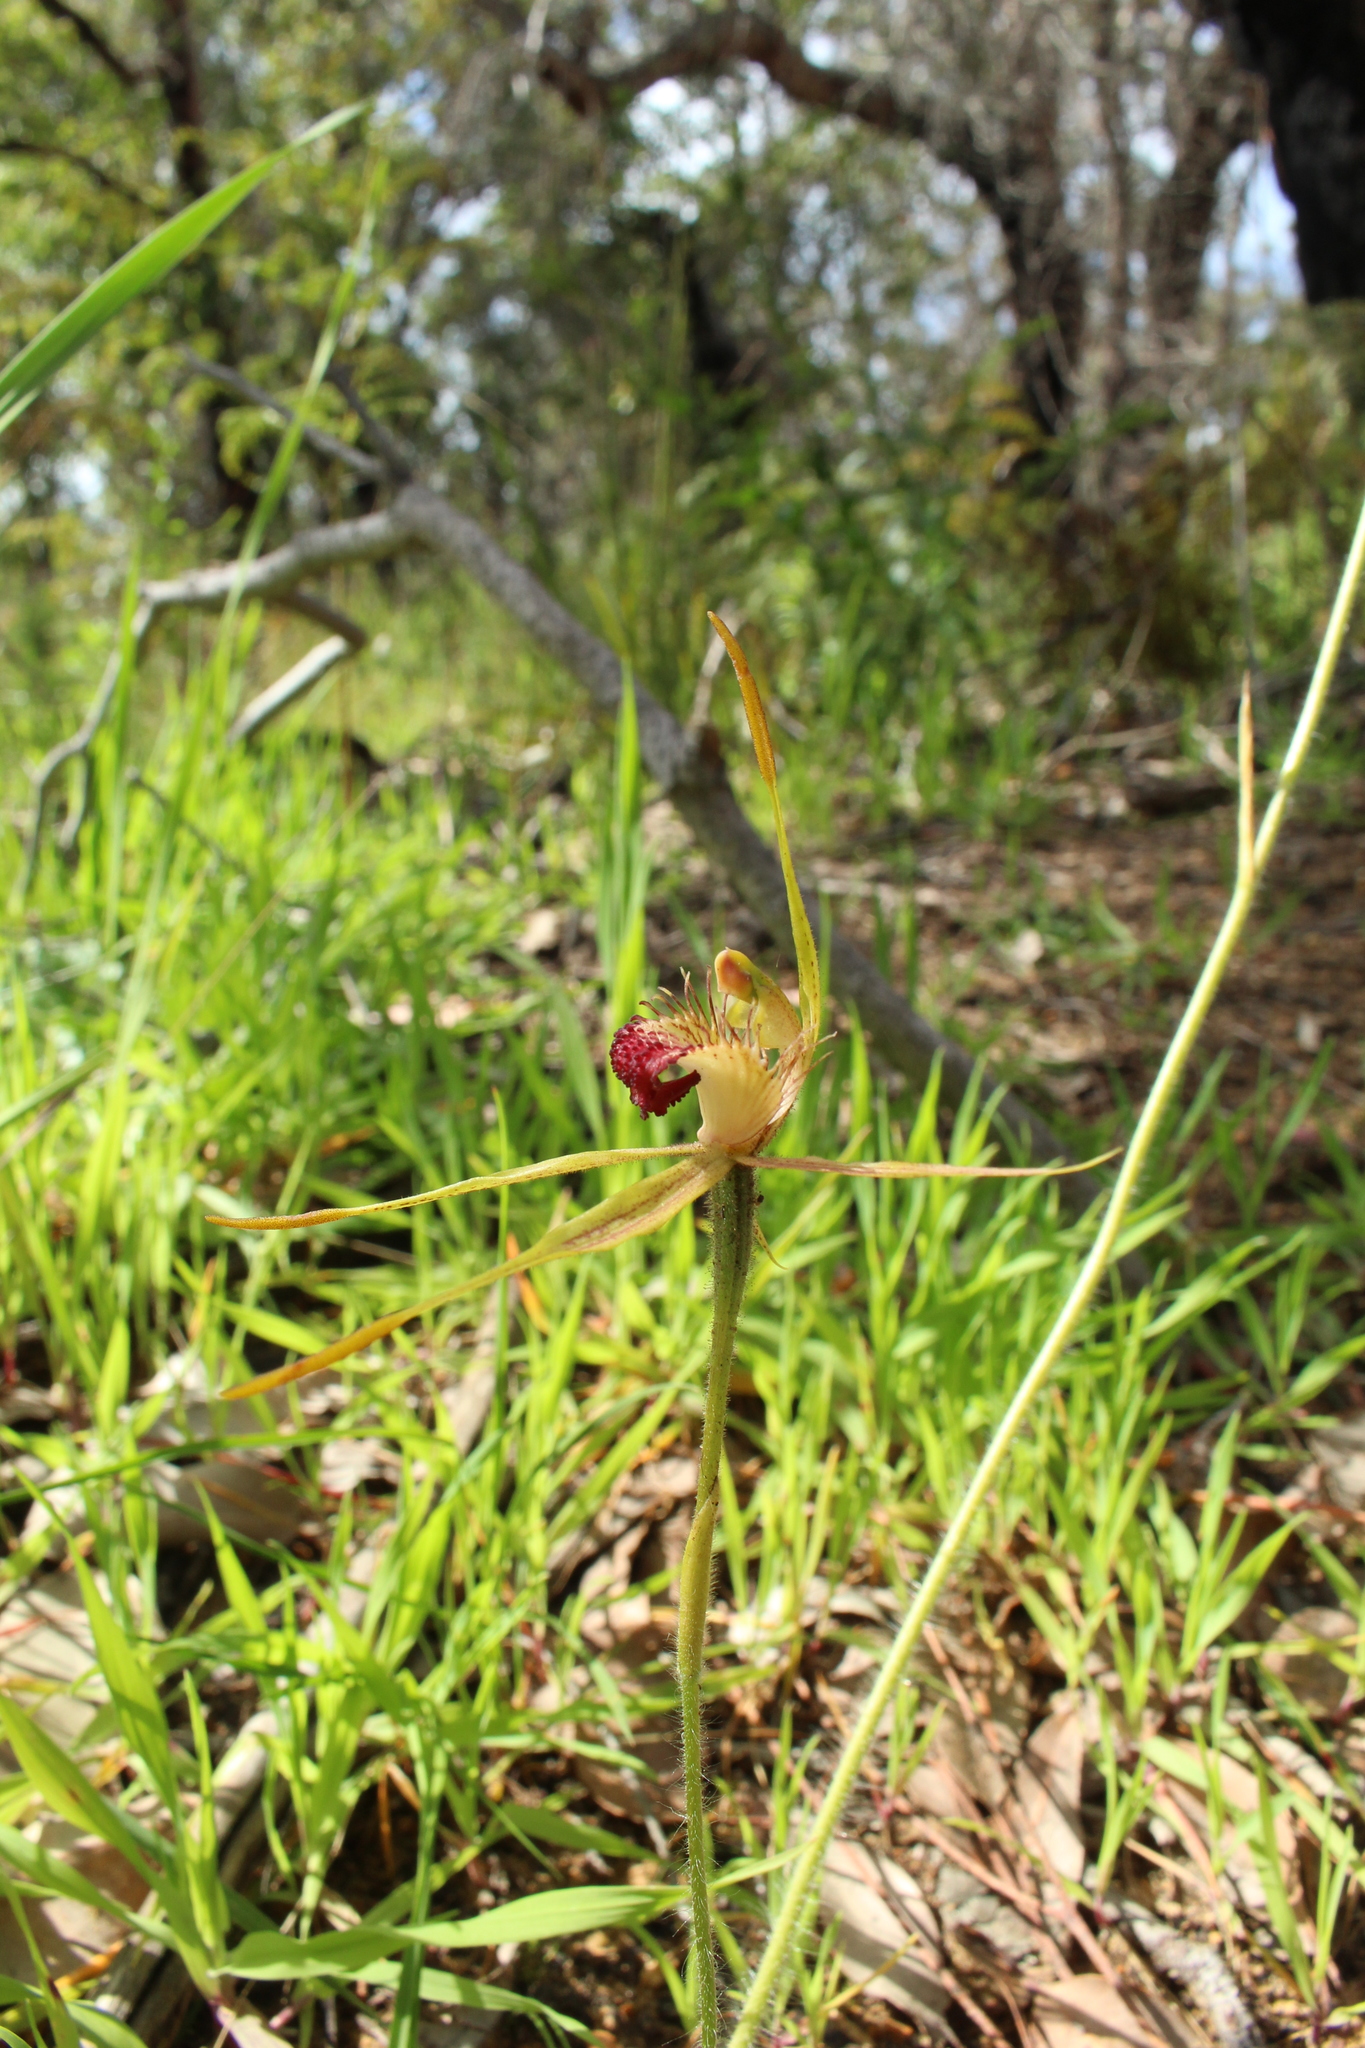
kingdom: Plantae
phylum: Tracheophyta
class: Liliopsida
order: Asparagales
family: Orchidaceae
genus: Caladenia
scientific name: Caladenia pectinata
